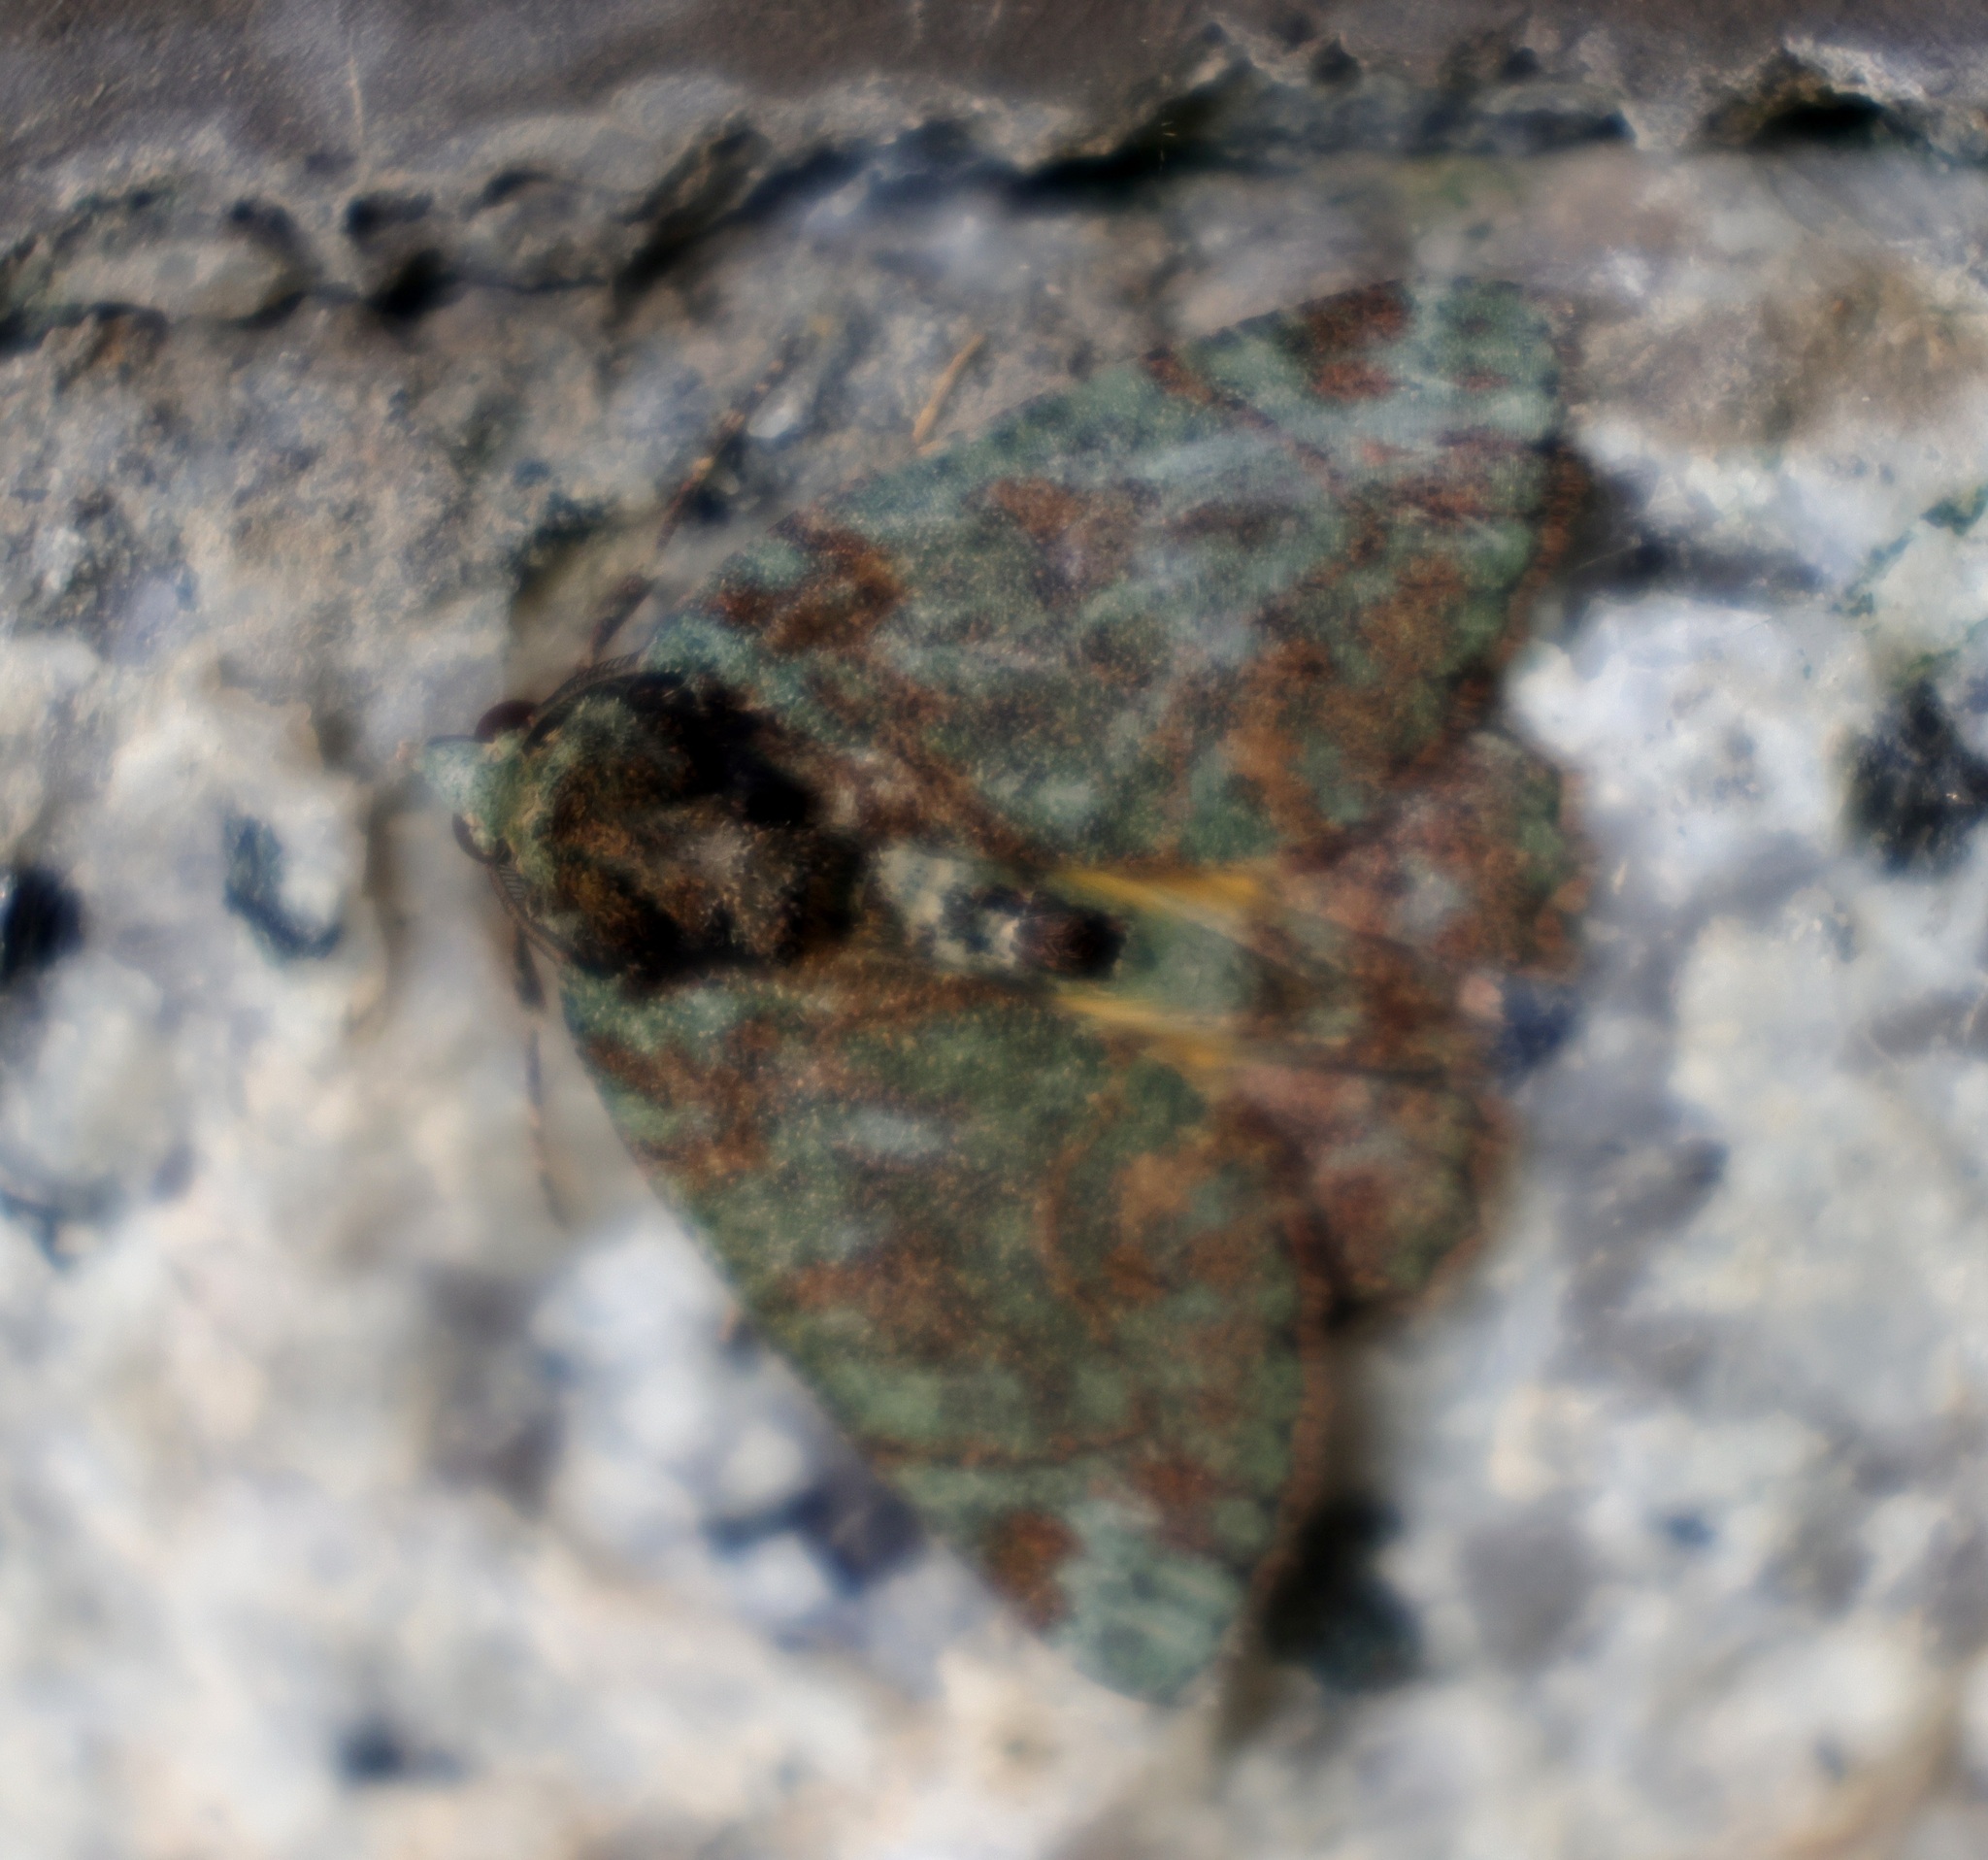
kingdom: Animalia
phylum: Arthropoda
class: Insecta
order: Lepidoptera
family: Geometridae
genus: Dindica
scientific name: Dindica olivacea
